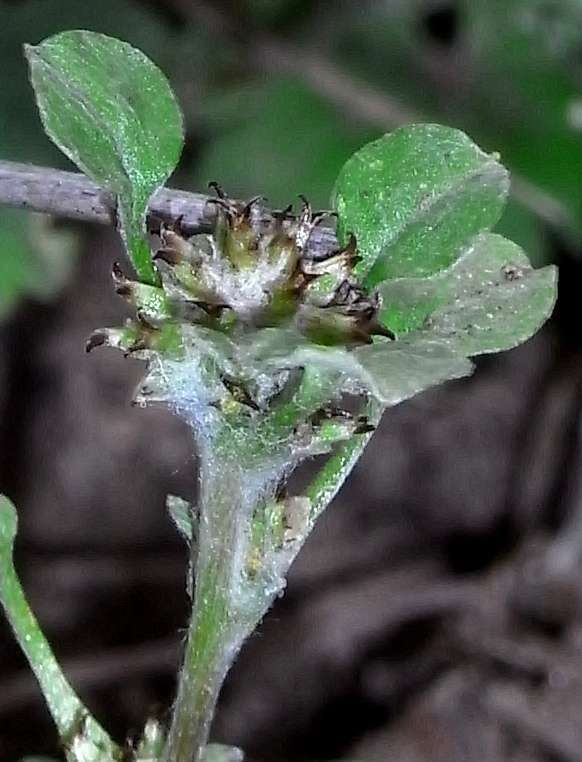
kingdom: Plantae
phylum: Tracheophyta
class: Magnoliopsida
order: Asterales
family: Asteraceae
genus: Stuartina
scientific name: Stuartina muelleri
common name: Spoon-leaved cudweed
